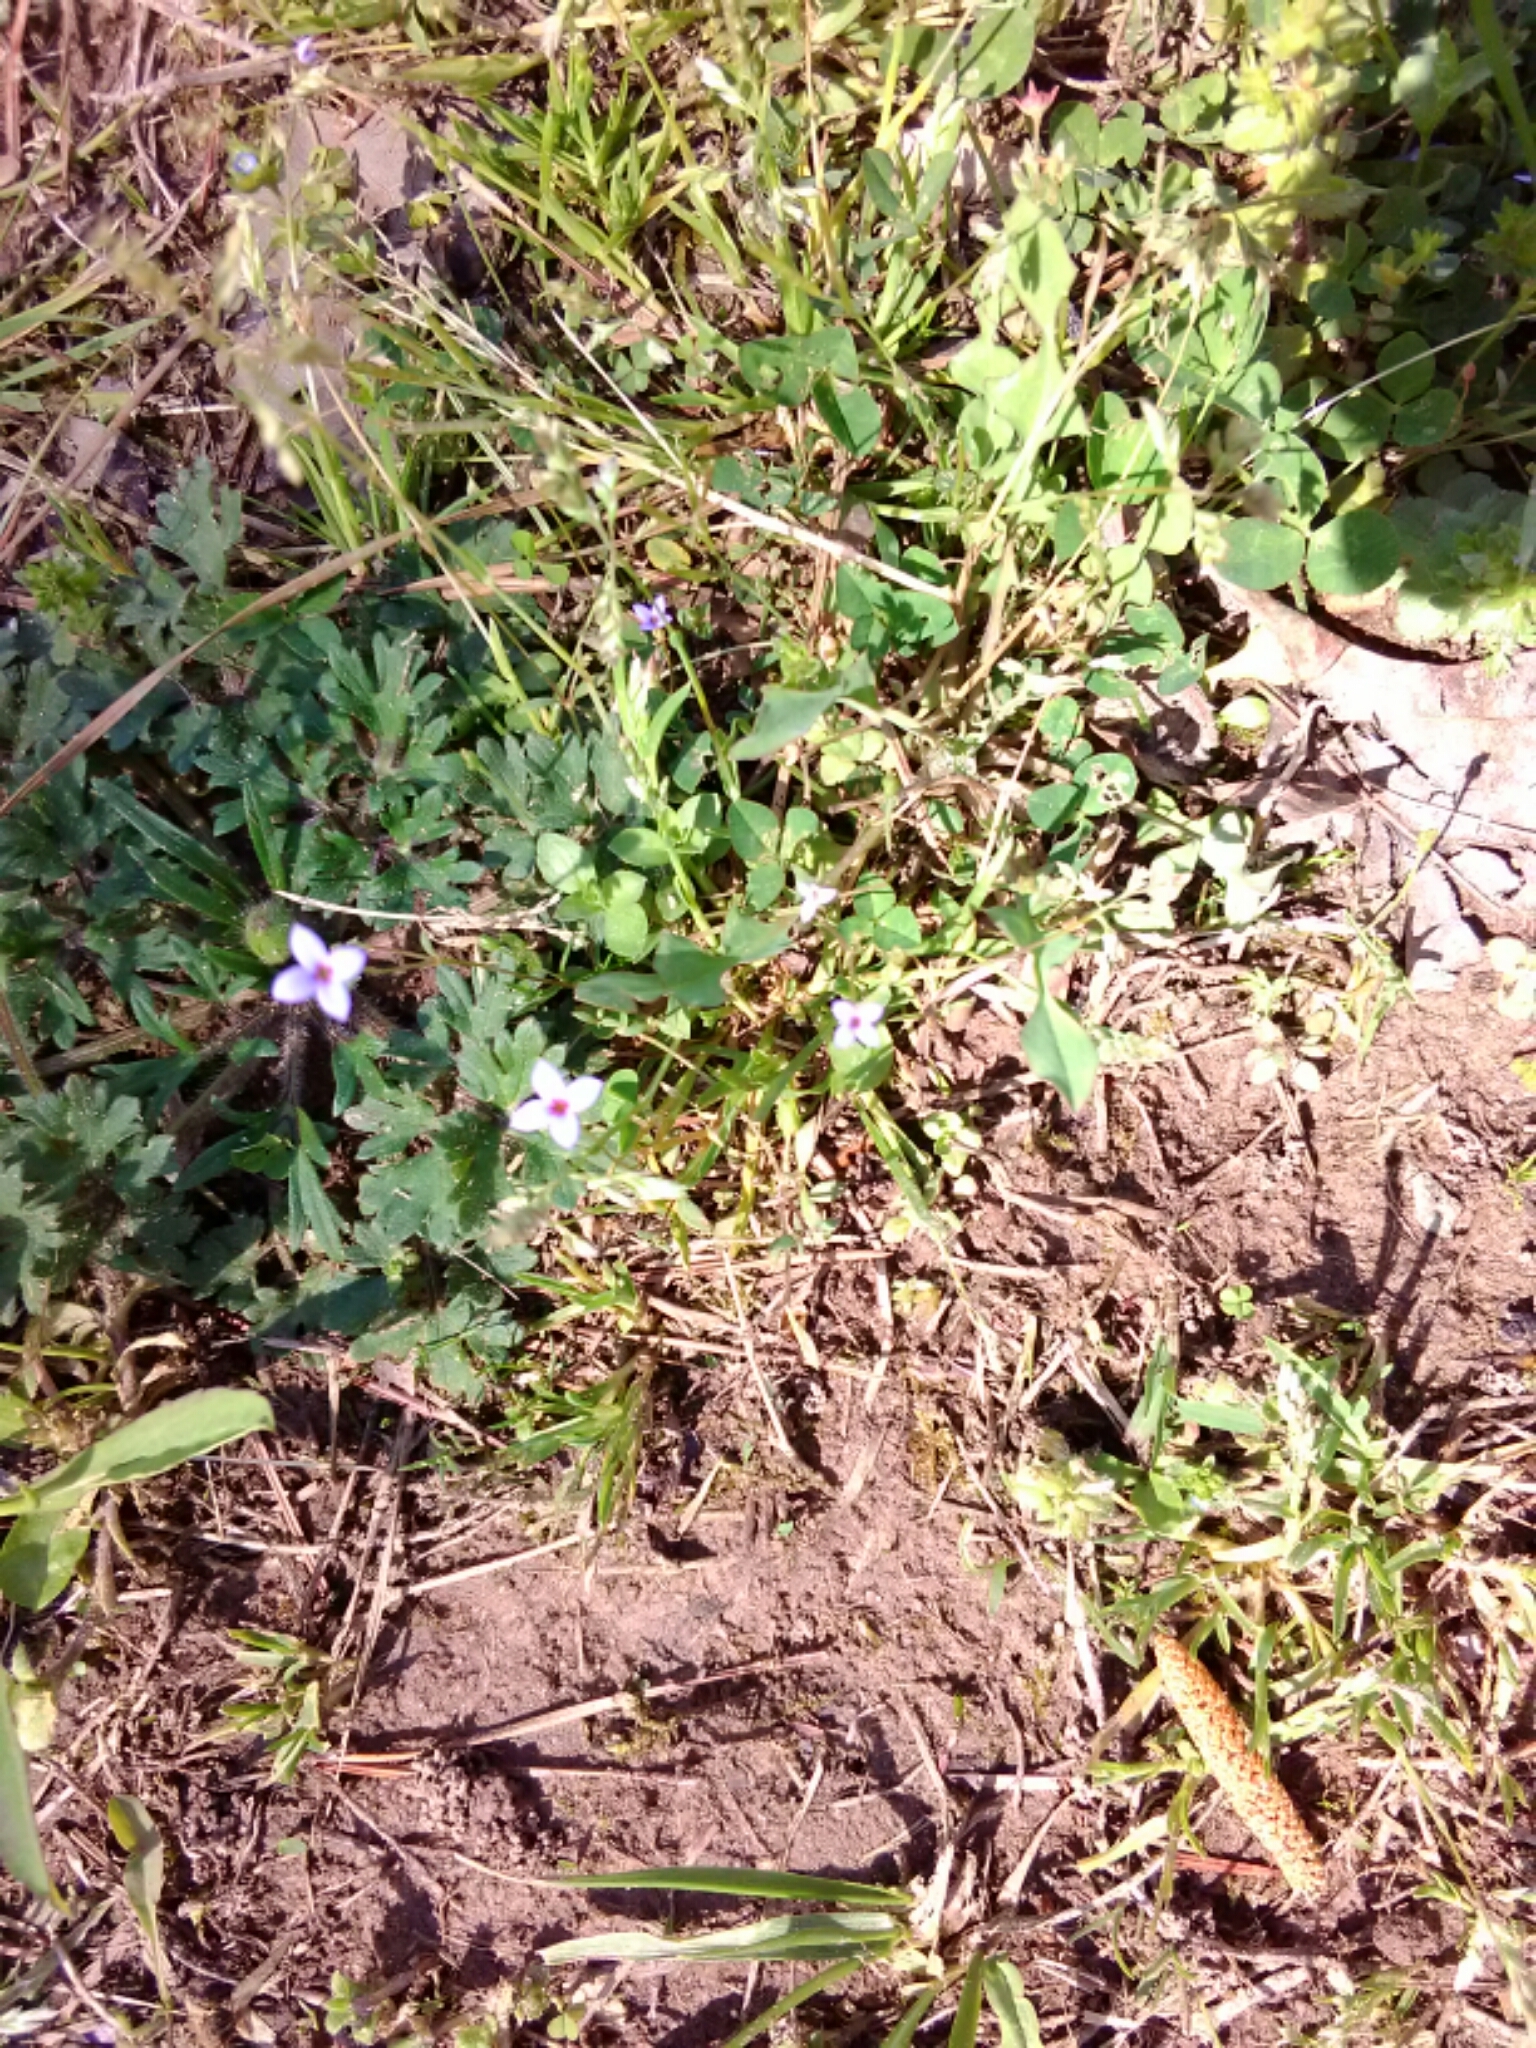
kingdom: Plantae
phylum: Tracheophyta
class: Magnoliopsida
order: Gentianales
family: Rubiaceae
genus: Houstonia
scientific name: Houstonia pusilla
